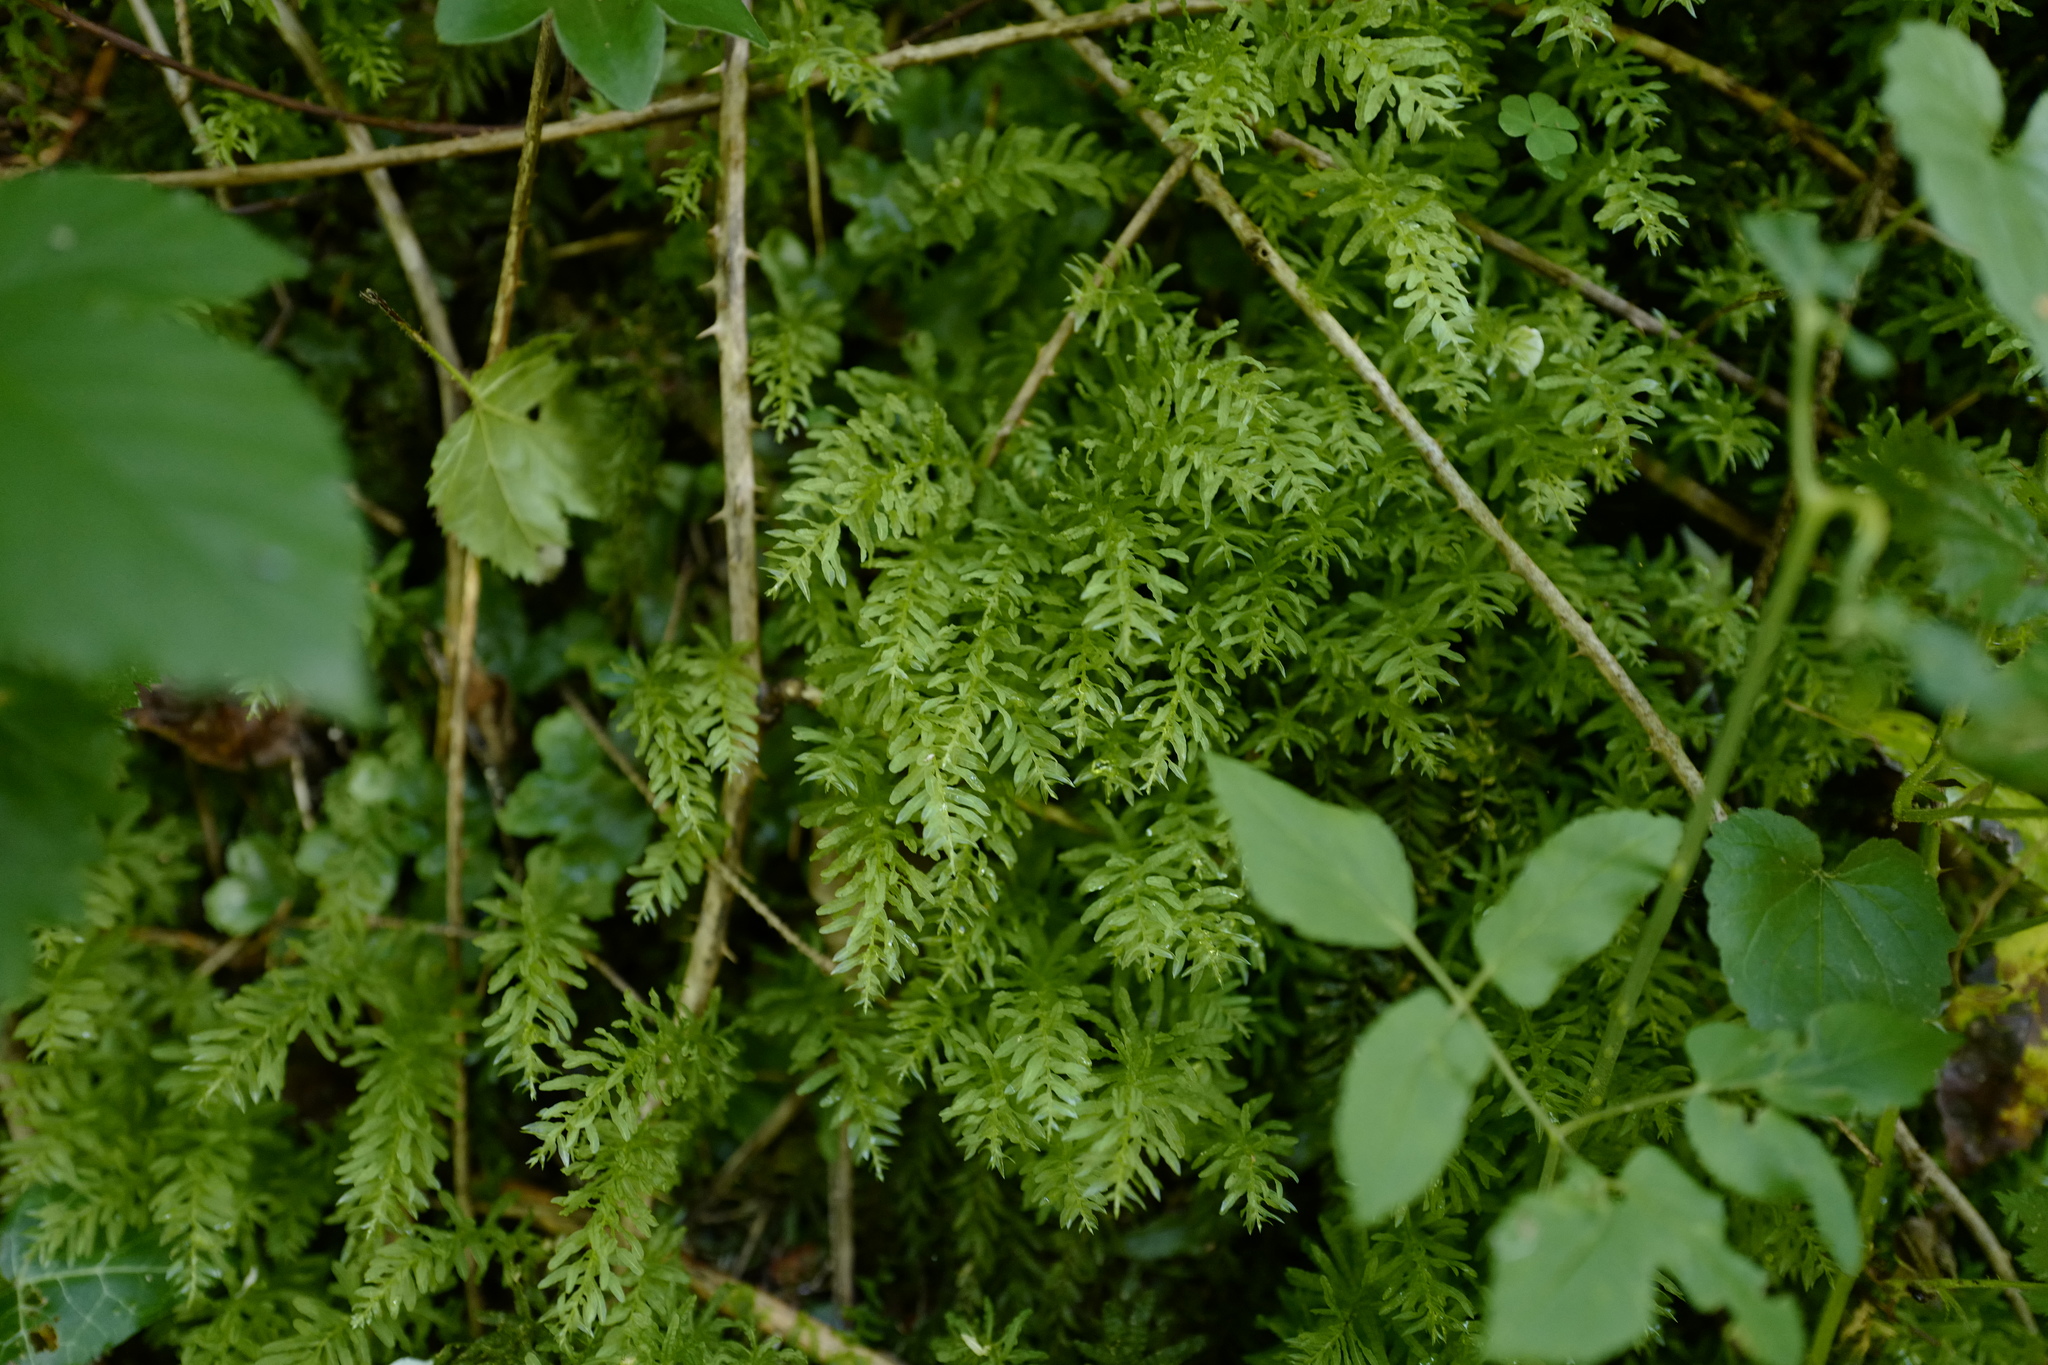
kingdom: Plantae
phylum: Bryophyta
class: Bryopsida
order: Bryales
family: Mniaceae
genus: Plagiomnium
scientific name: Plagiomnium undulatum
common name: Hart's-tongue thyme-moss
